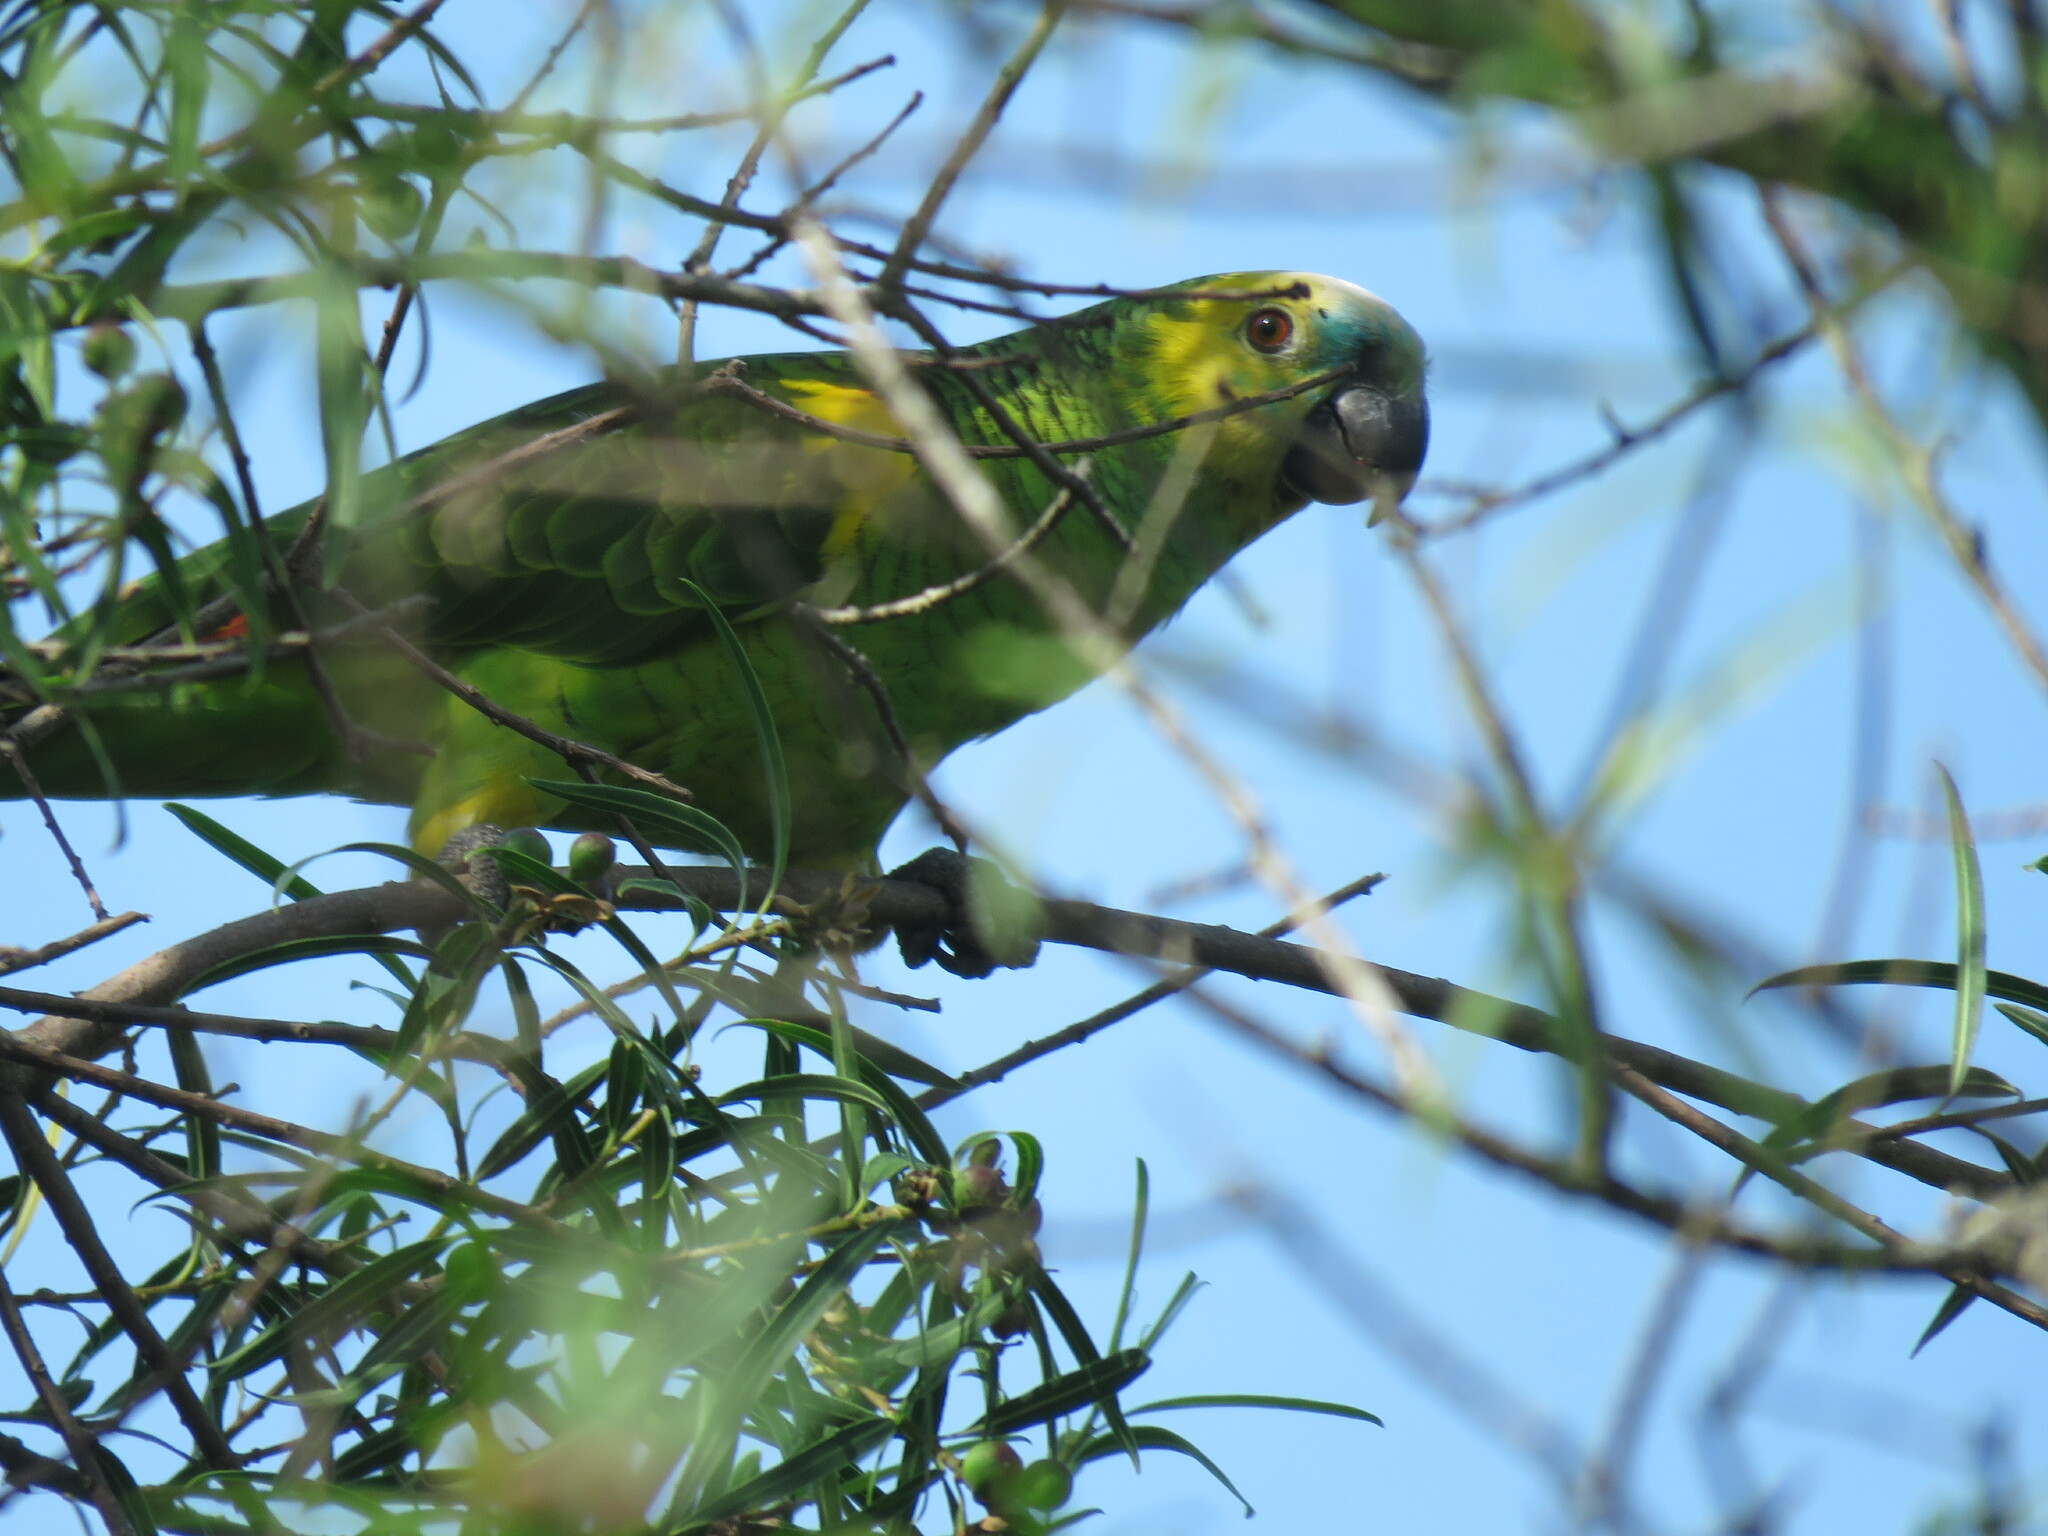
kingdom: Animalia
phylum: Chordata
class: Aves
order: Psittaciformes
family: Psittacidae
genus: Amazona
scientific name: Amazona aestiva
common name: Turquoise-fronted amazon
